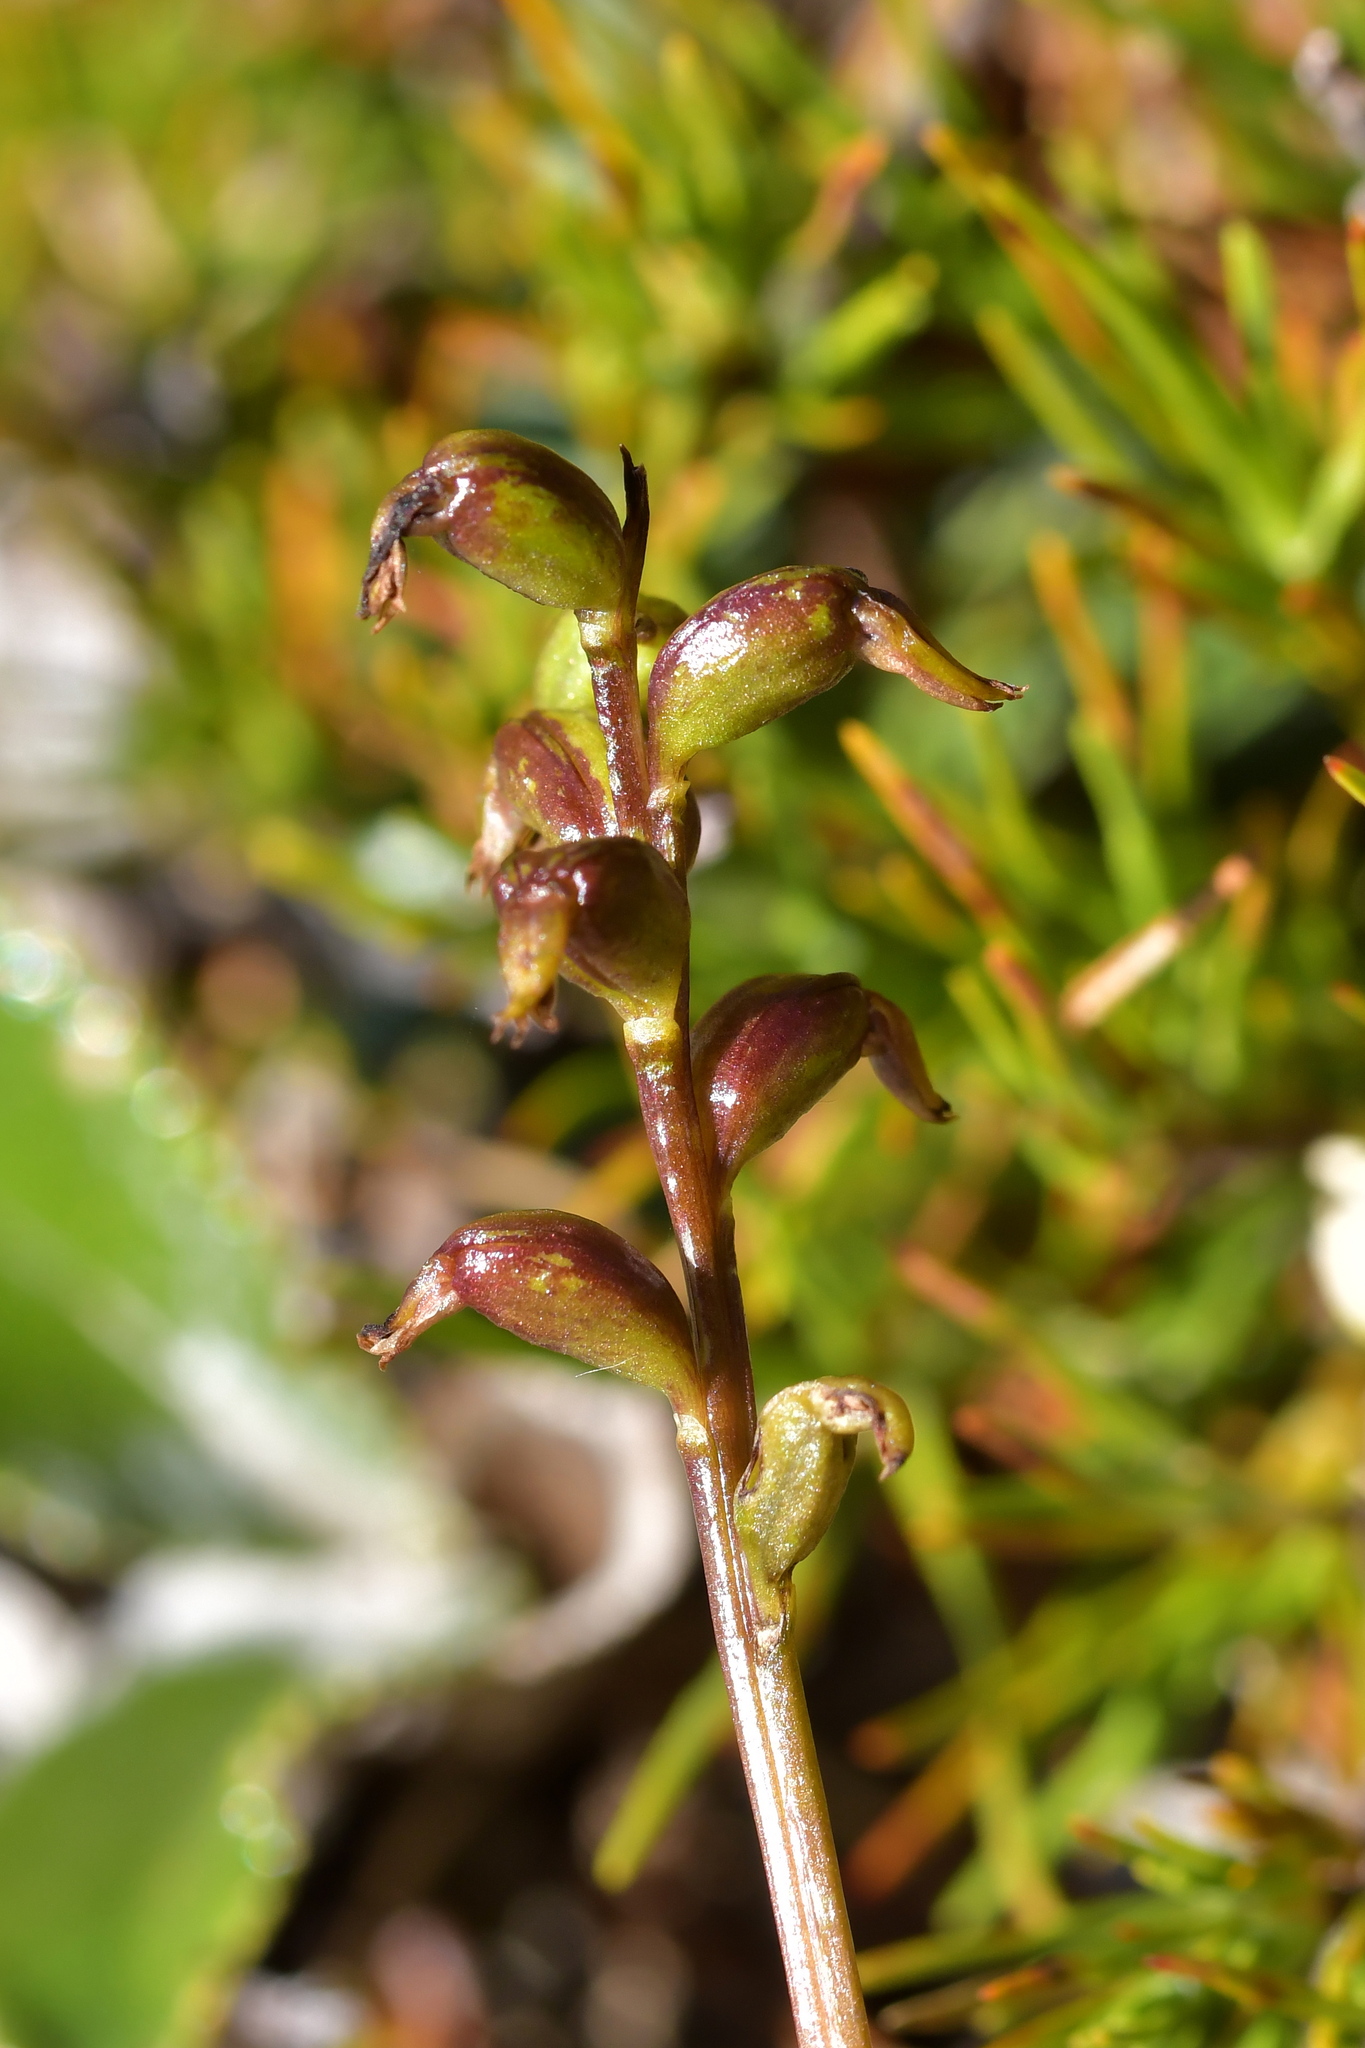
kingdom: Plantae
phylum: Tracheophyta
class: Liliopsida
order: Asparagales
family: Orchidaceae
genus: Prasophyllum
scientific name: Prasophyllum colensoi
